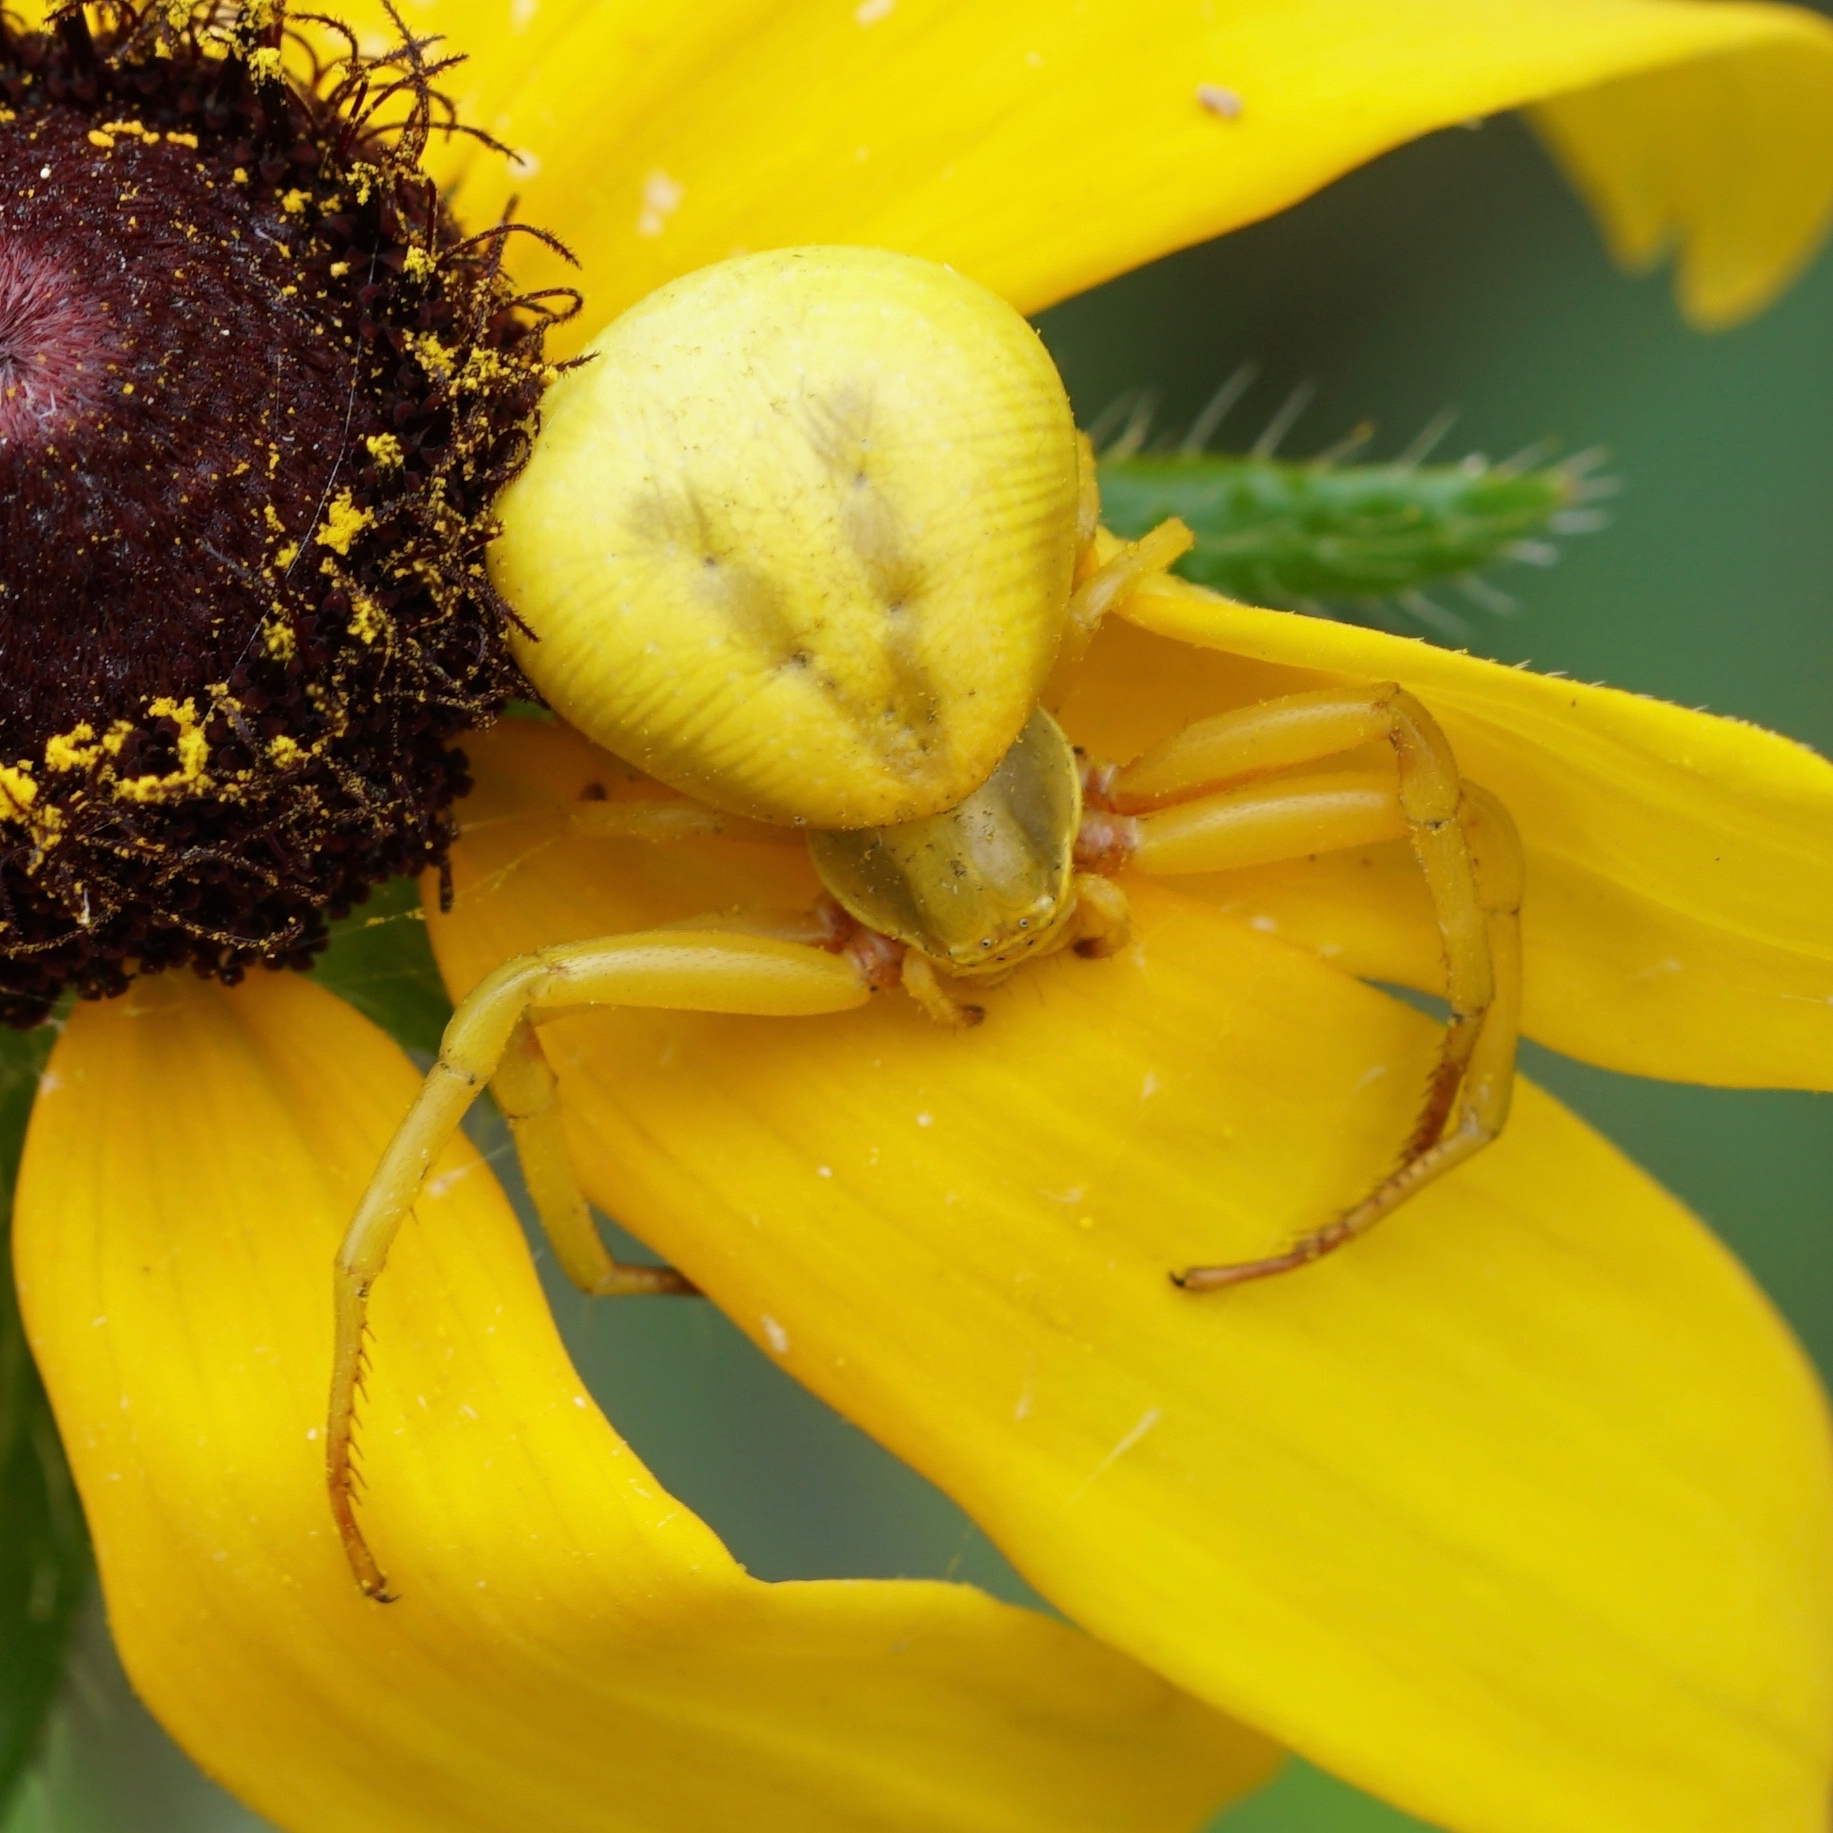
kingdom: Animalia
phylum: Arthropoda
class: Arachnida
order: Araneae
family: Thomisidae
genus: Misumenoides
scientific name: Misumenoides formosipes
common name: White-banded crab spider
